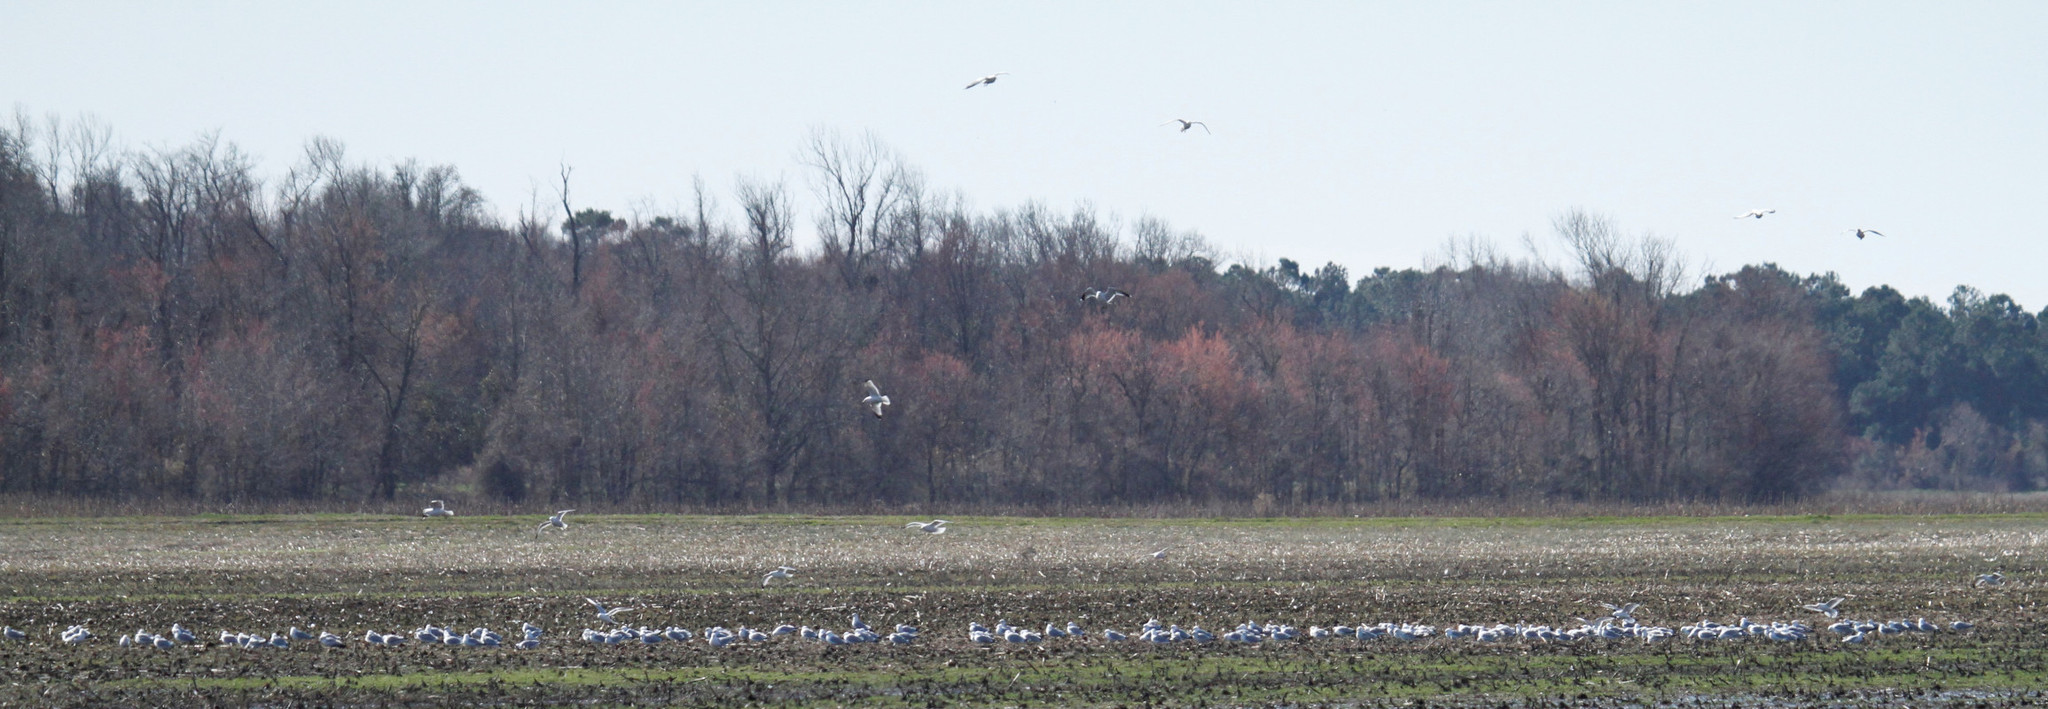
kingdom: Animalia
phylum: Chordata
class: Aves
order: Charadriiformes
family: Laridae
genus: Larus
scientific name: Larus delawarensis
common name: Ring-billed gull
